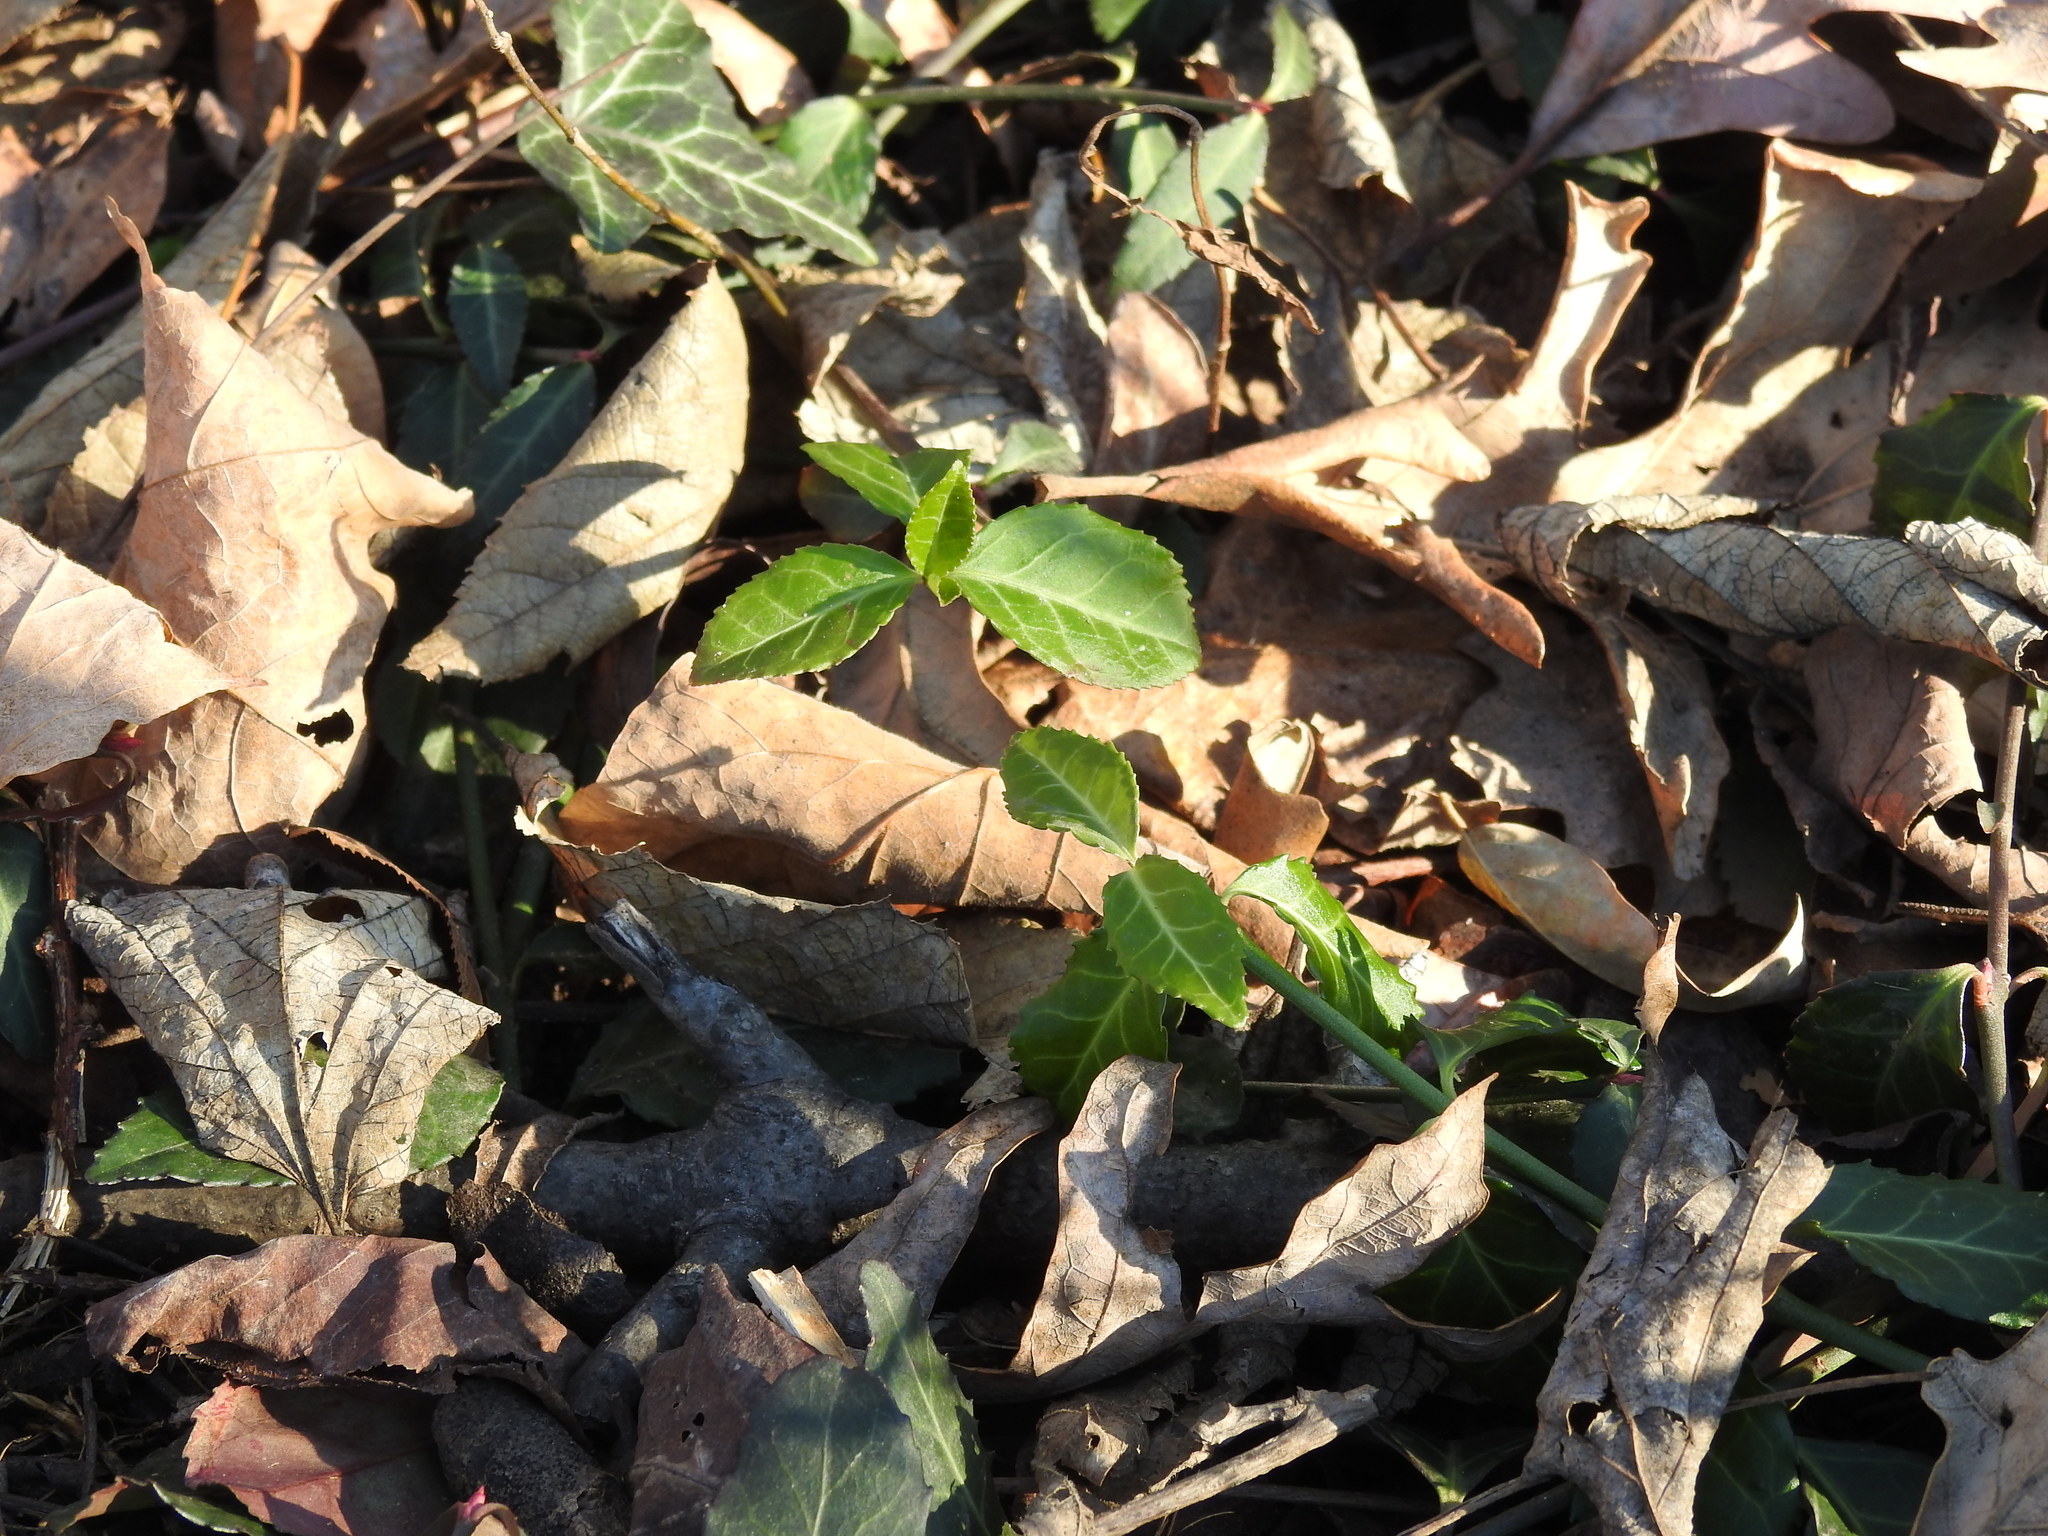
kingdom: Plantae
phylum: Tracheophyta
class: Magnoliopsida
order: Celastrales
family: Celastraceae
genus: Euonymus
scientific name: Euonymus fortunei
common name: Climbing euonymus
